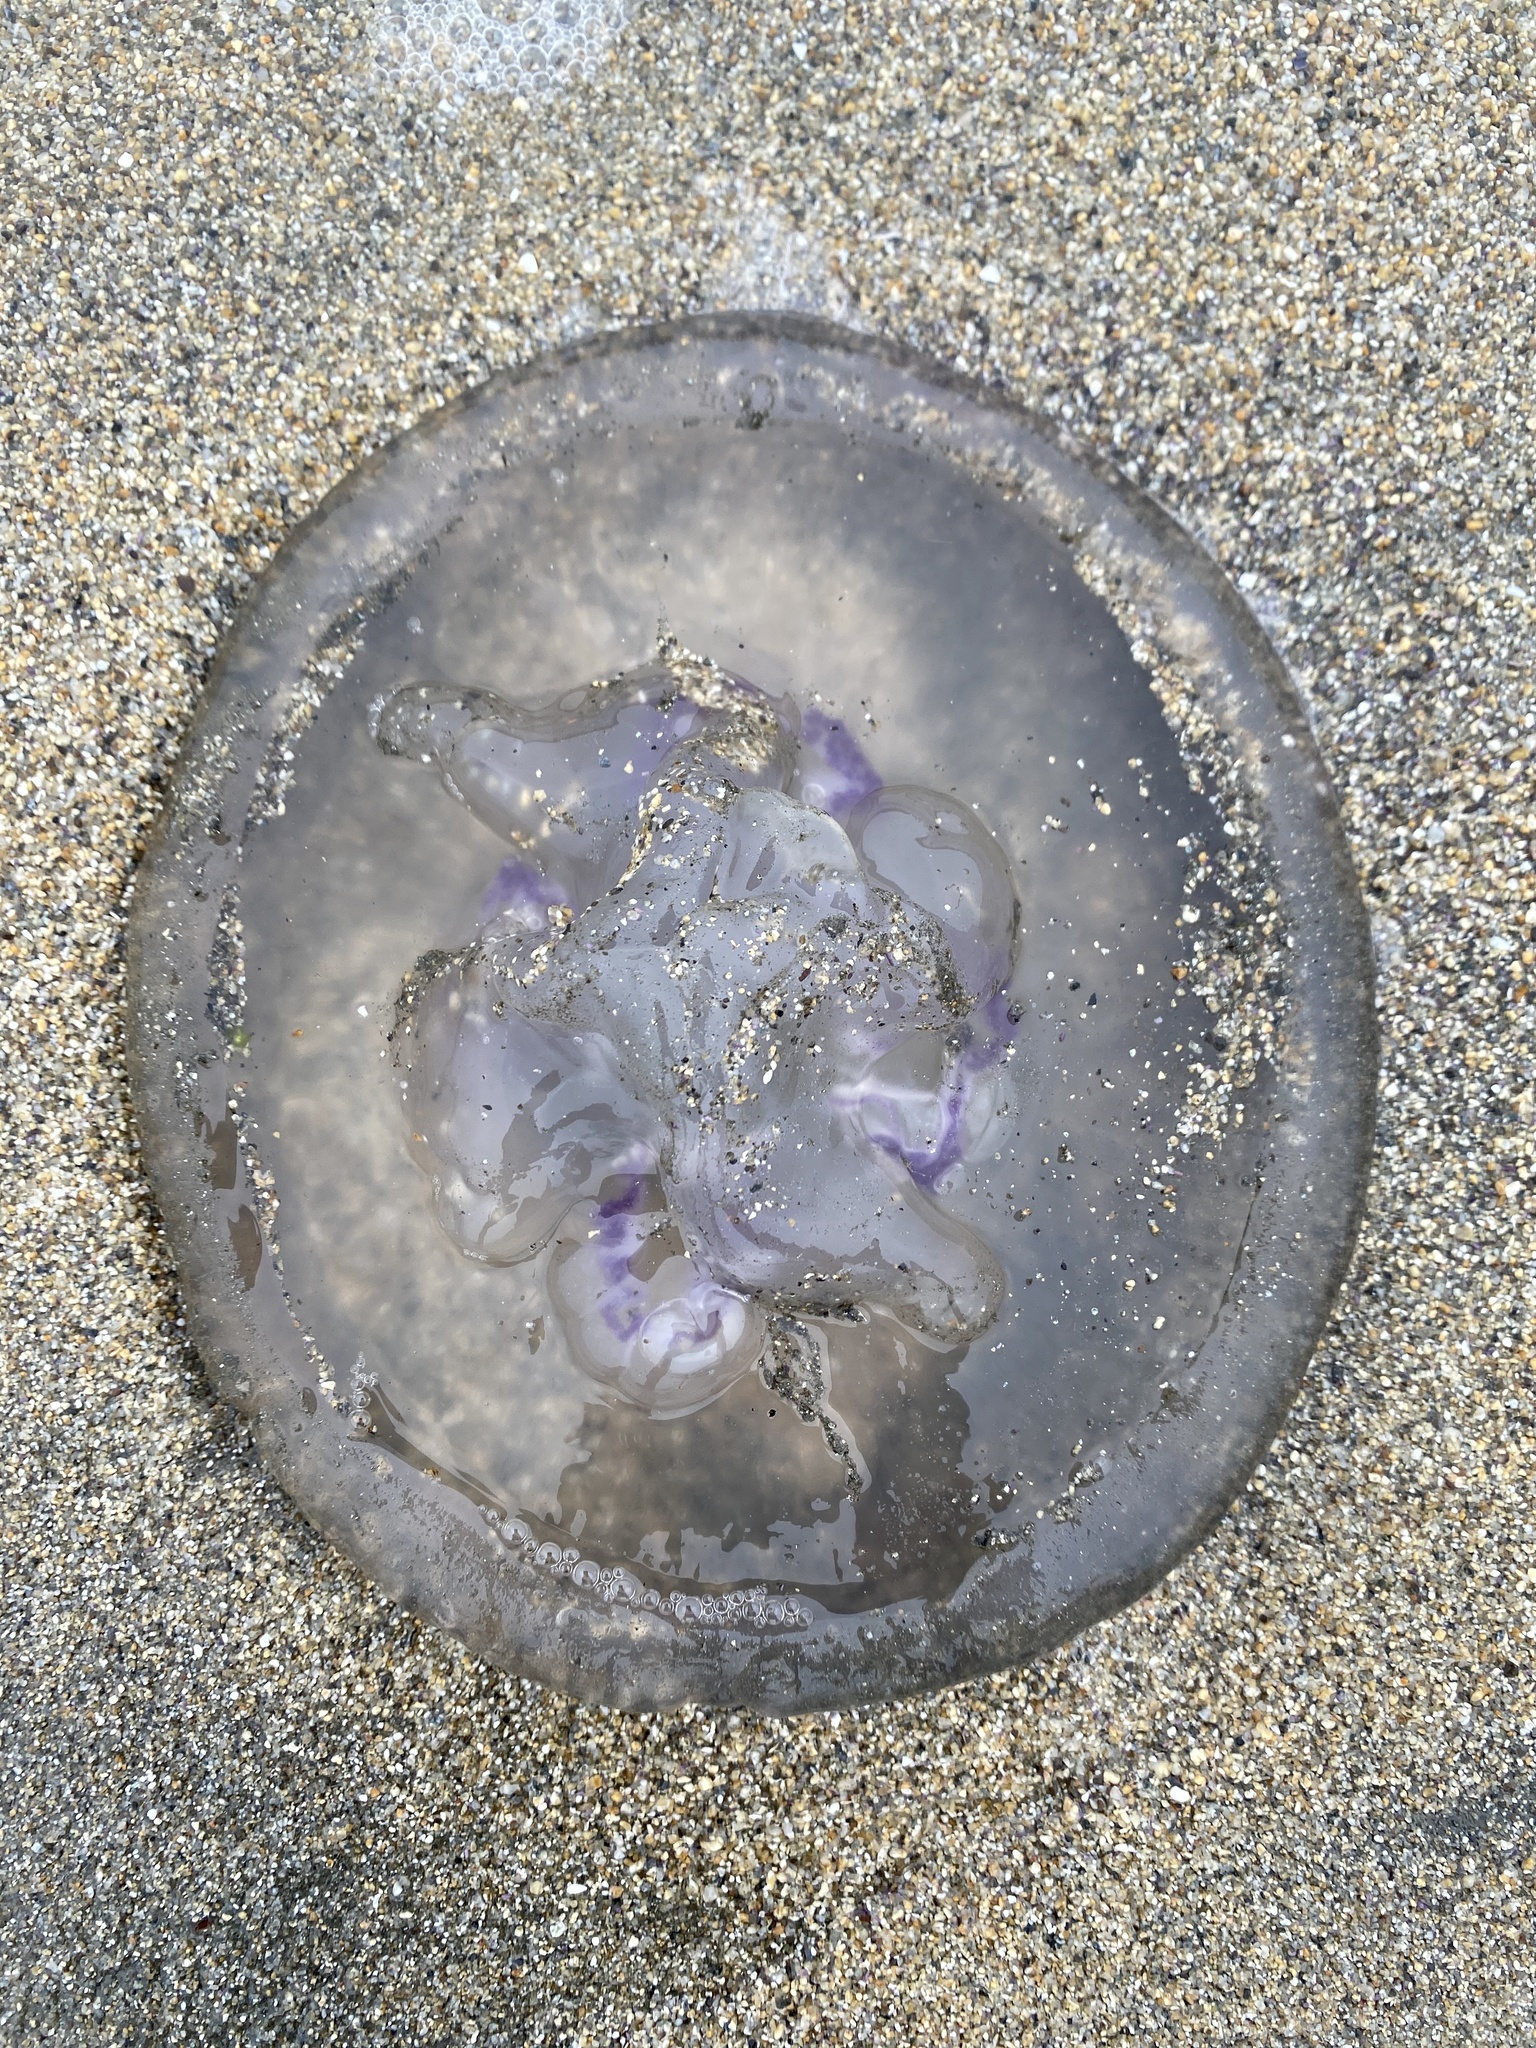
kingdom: Animalia
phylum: Cnidaria
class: Scyphozoa
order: Semaeostomeae
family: Ulmaridae
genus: Aurelia
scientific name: Aurelia labiata
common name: Pacific moon jelly
